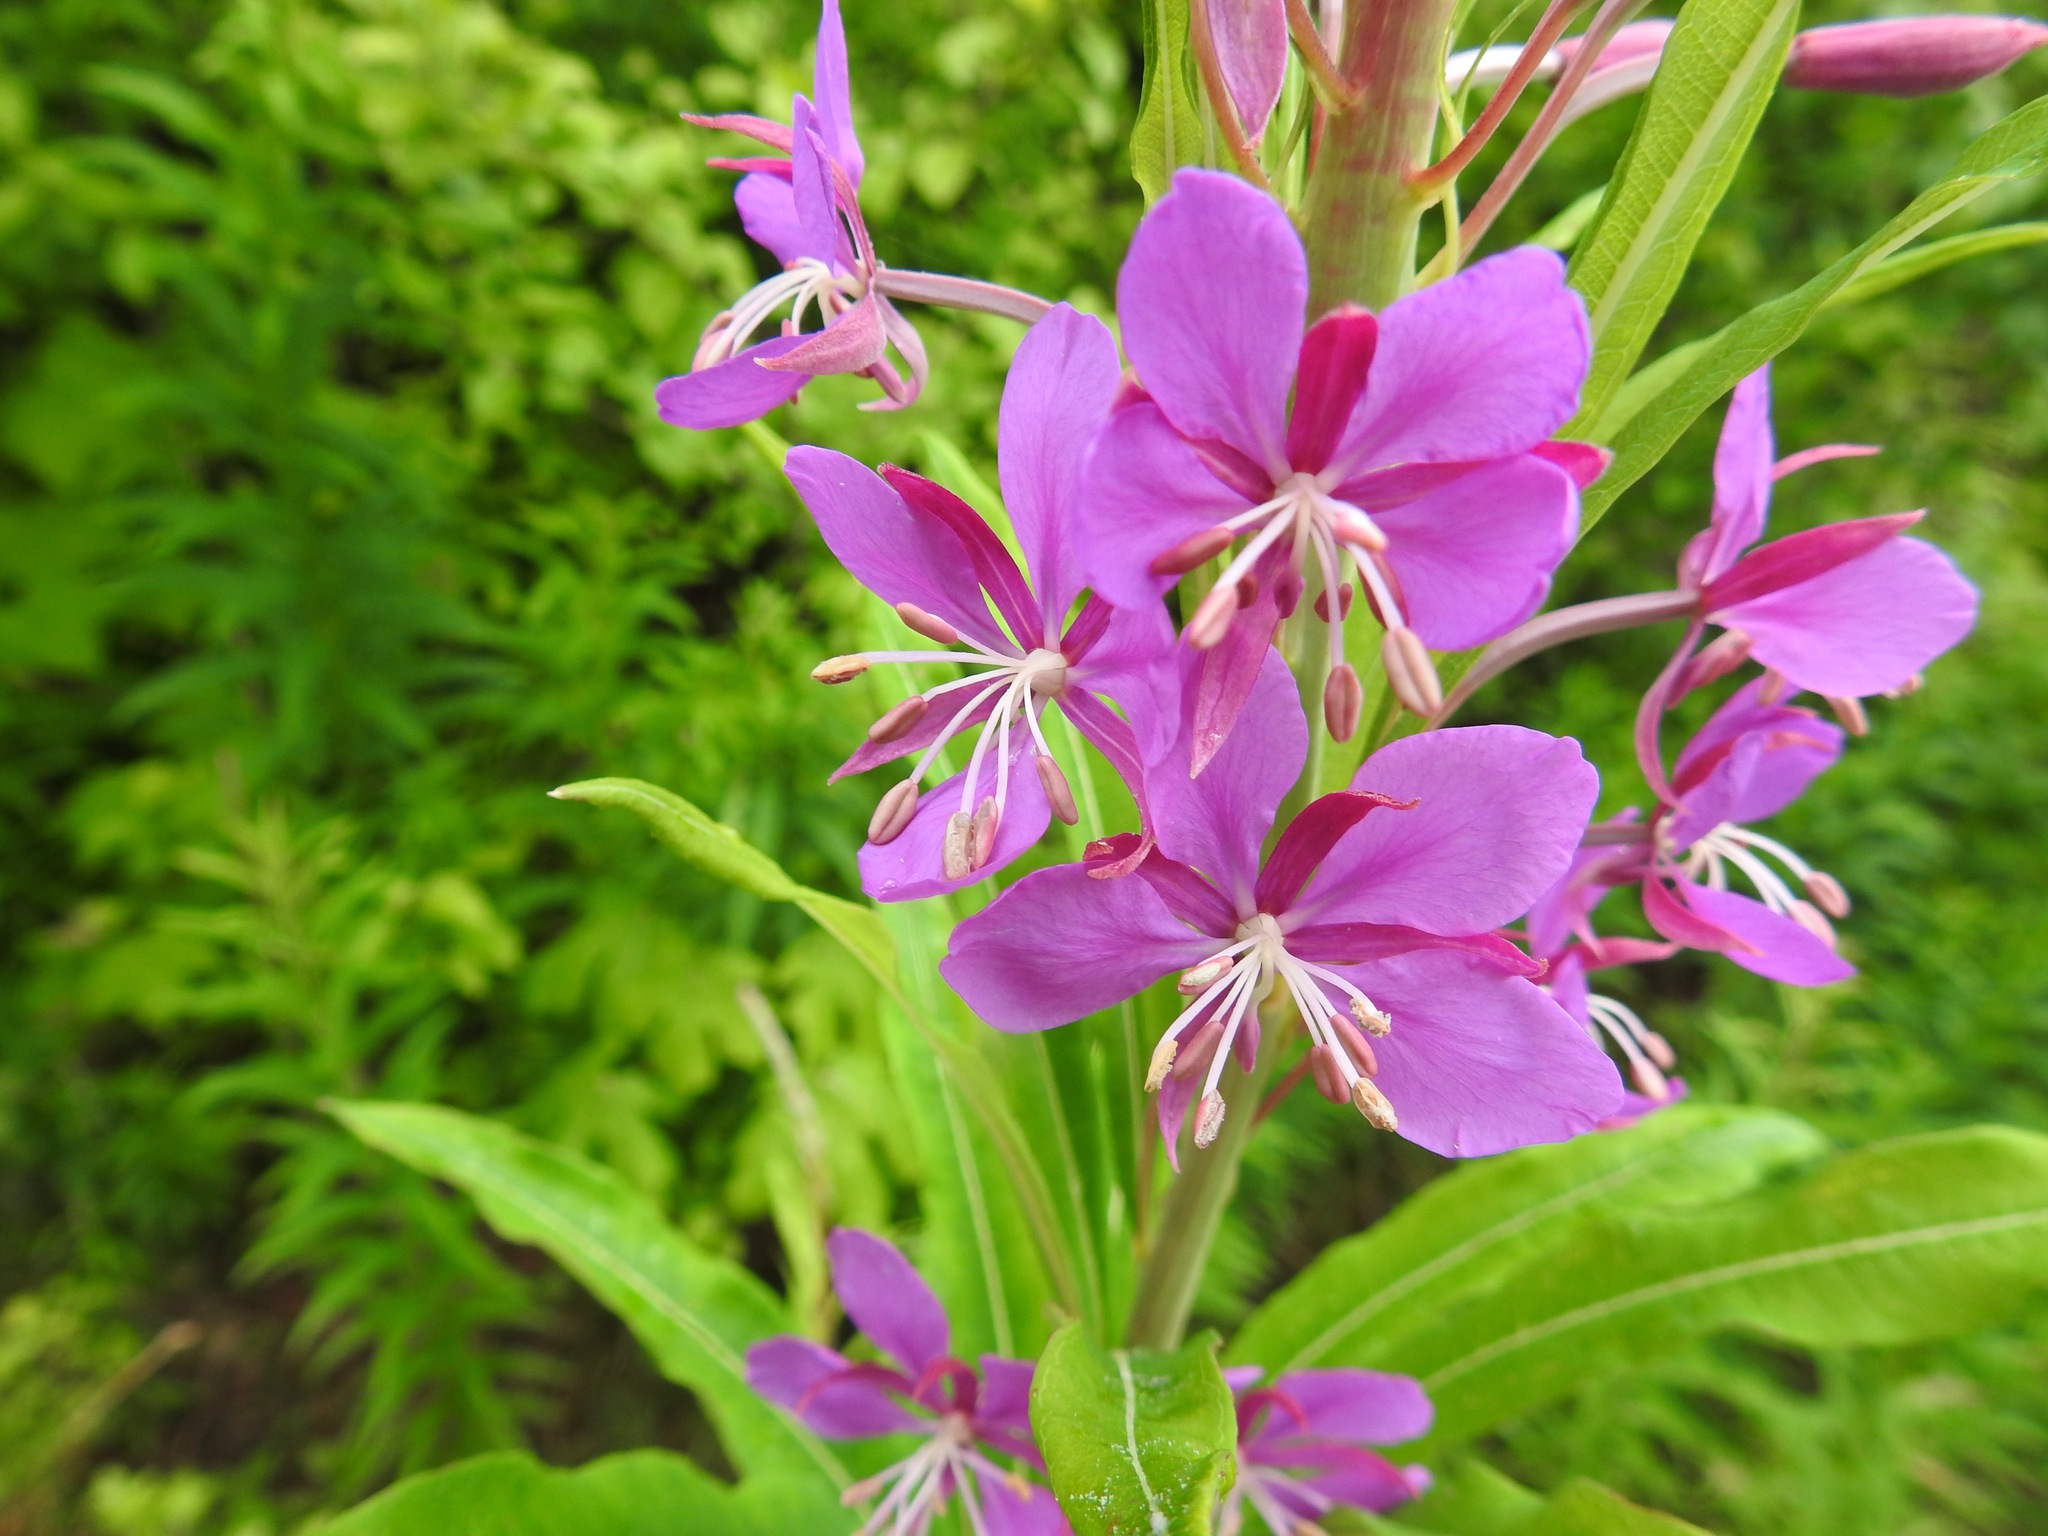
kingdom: Plantae
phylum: Tracheophyta
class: Magnoliopsida
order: Myrtales
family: Onagraceae
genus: Chamaenerion
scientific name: Chamaenerion angustifolium
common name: Fireweed
